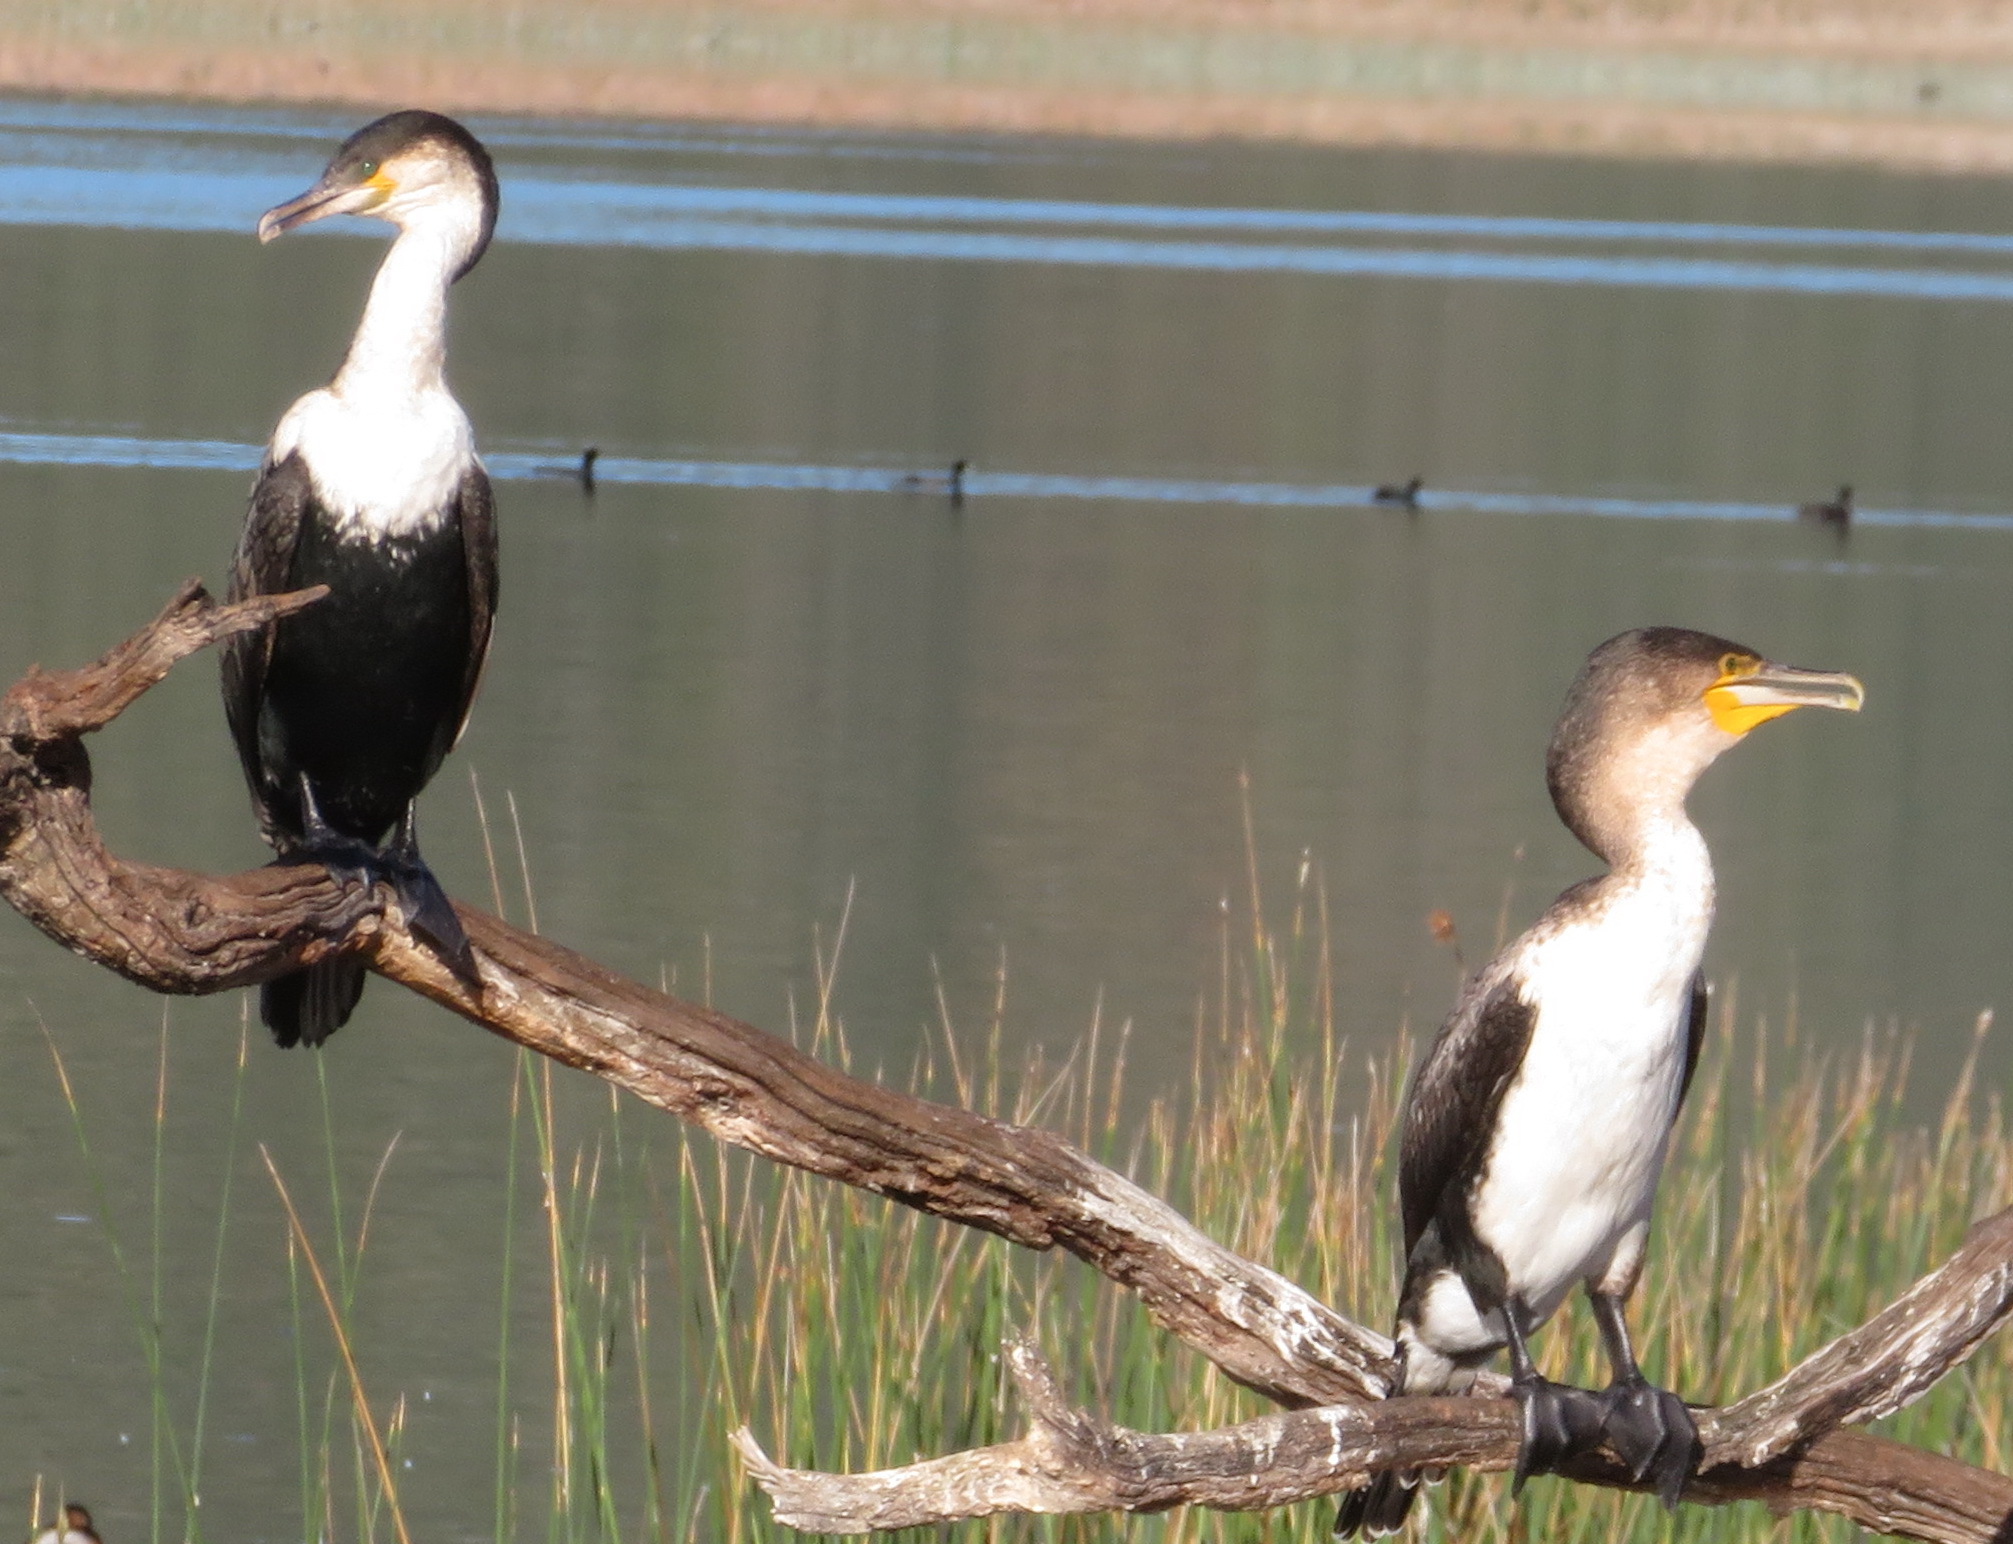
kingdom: Animalia
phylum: Chordata
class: Aves
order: Suliformes
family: Phalacrocoracidae
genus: Phalacrocorax
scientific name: Phalacrocorax carbo
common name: Great cormorant
